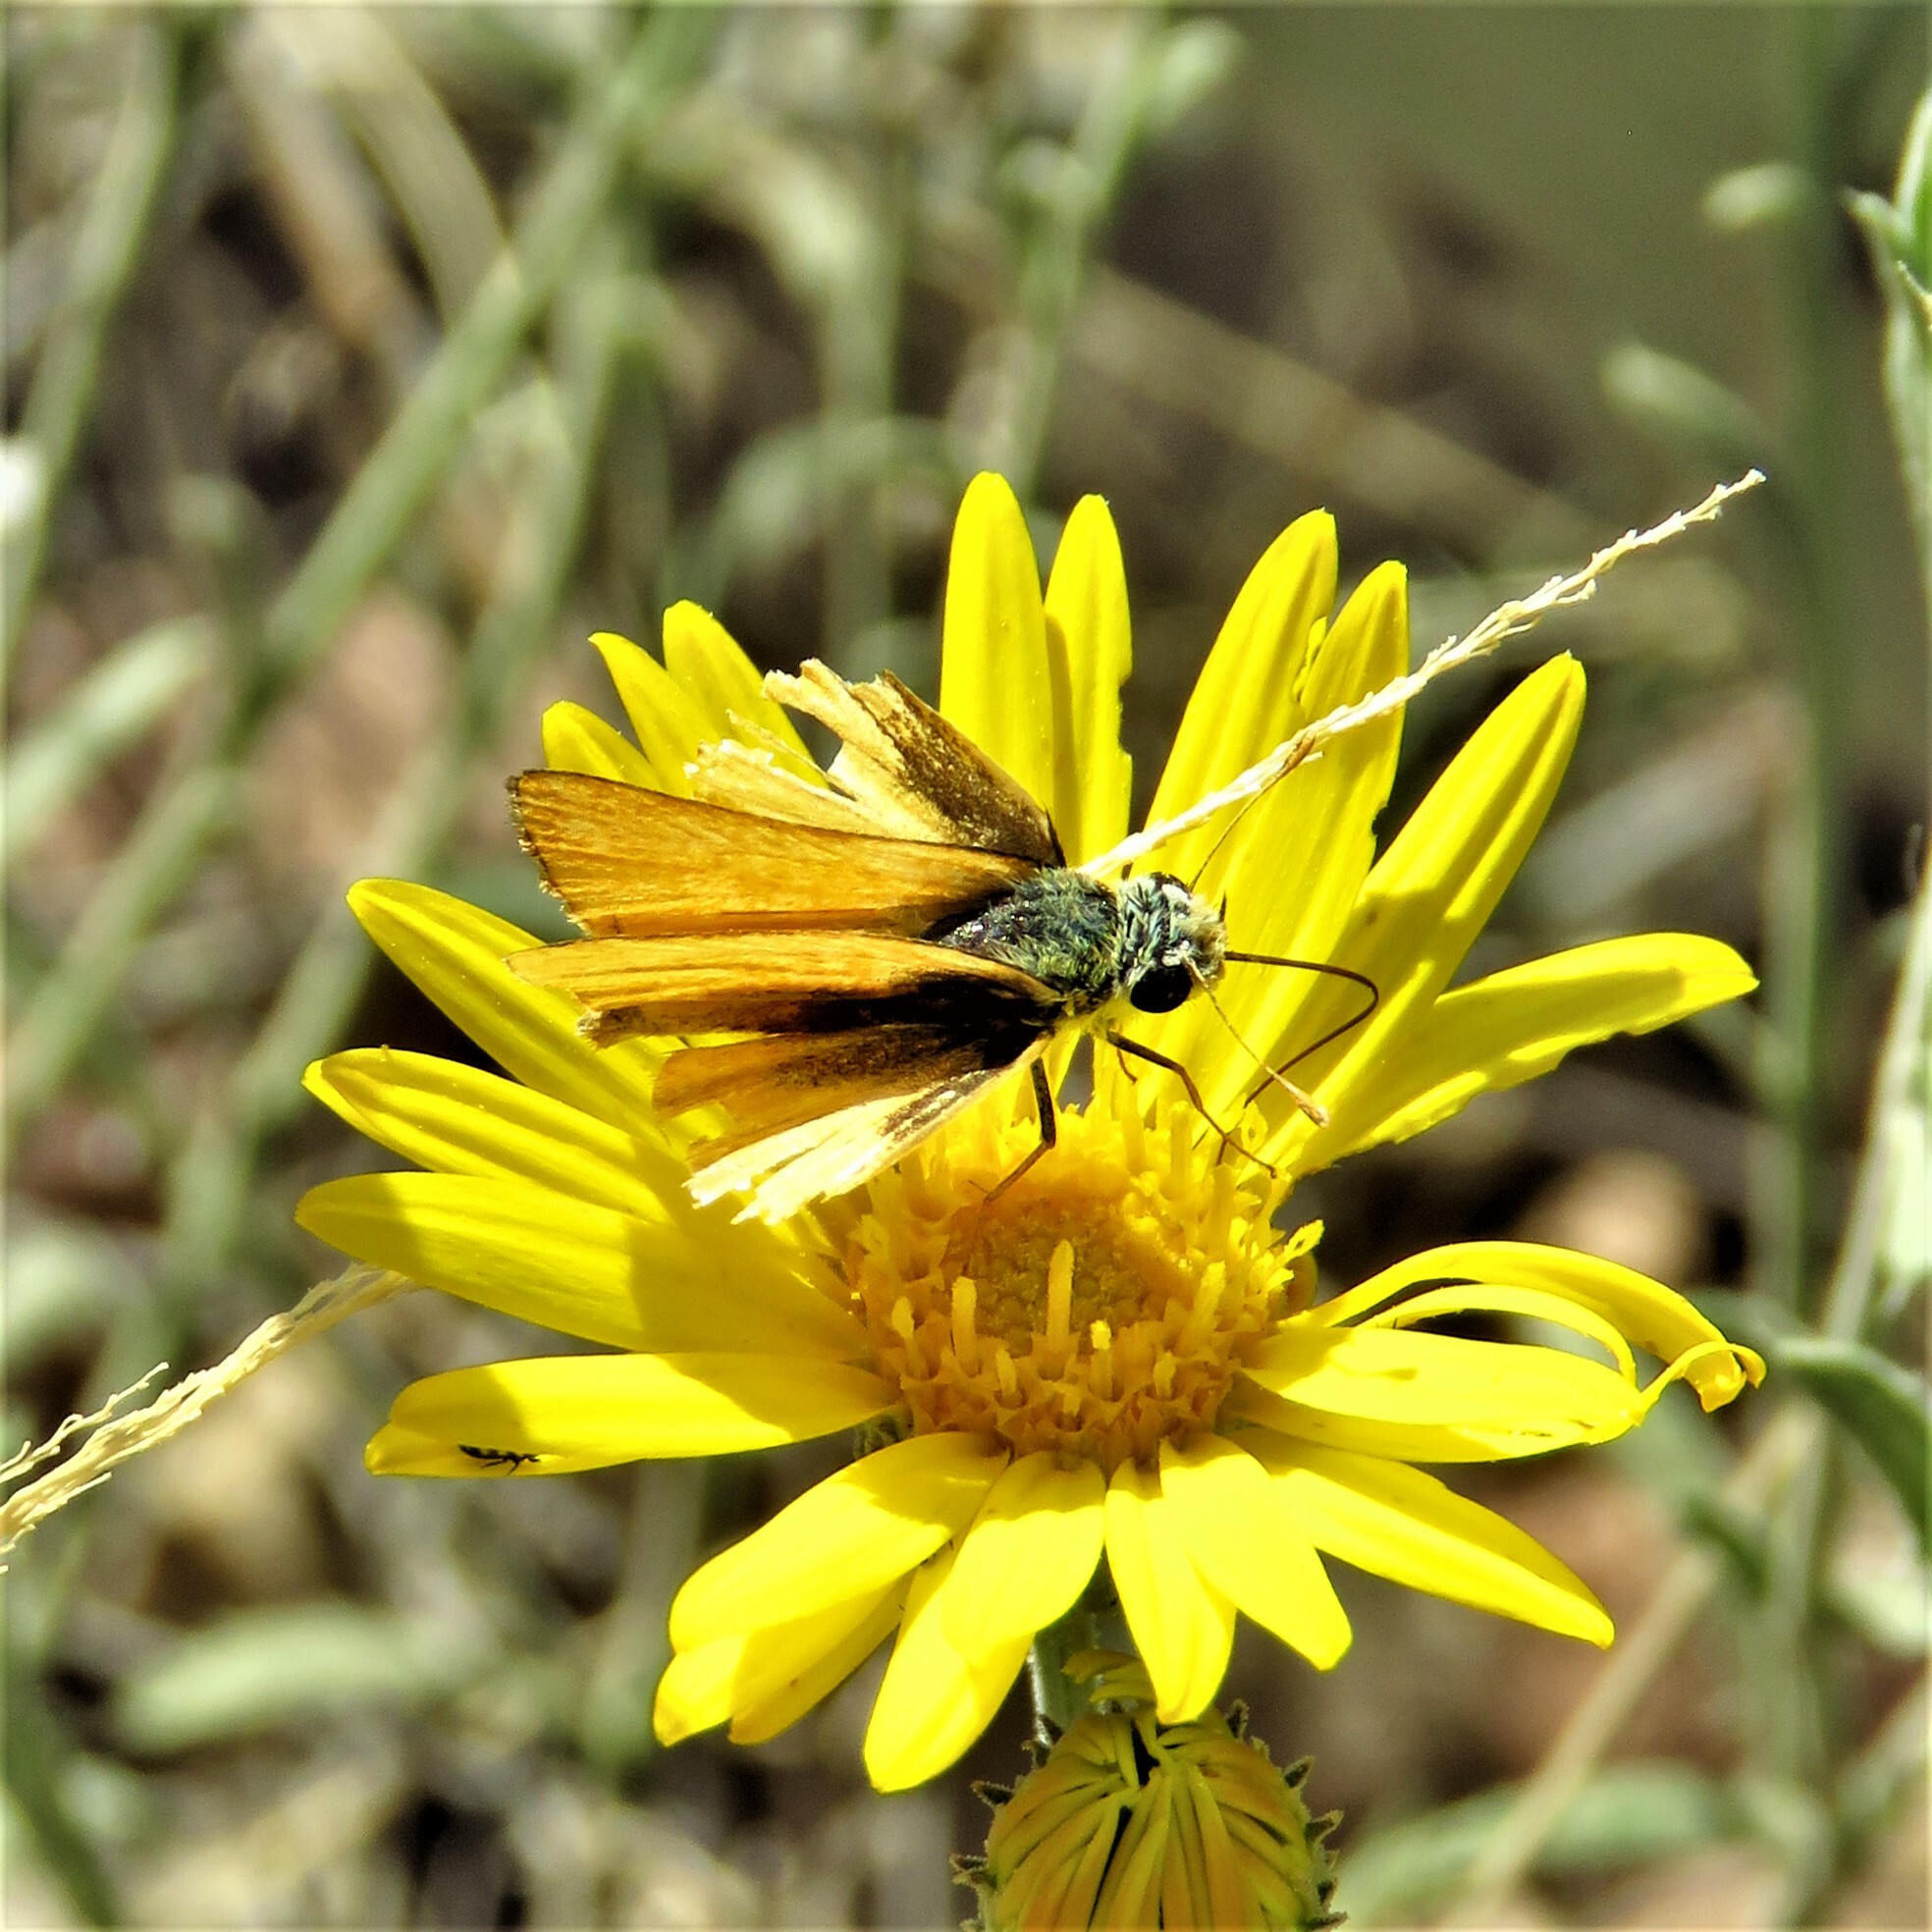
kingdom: Animalia
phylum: Arthropoda
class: Insecta
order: Lepidoptera
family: Hesperiidae
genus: Copaeodes
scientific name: Copaeodes aurantiaca
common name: Orange skipperling
